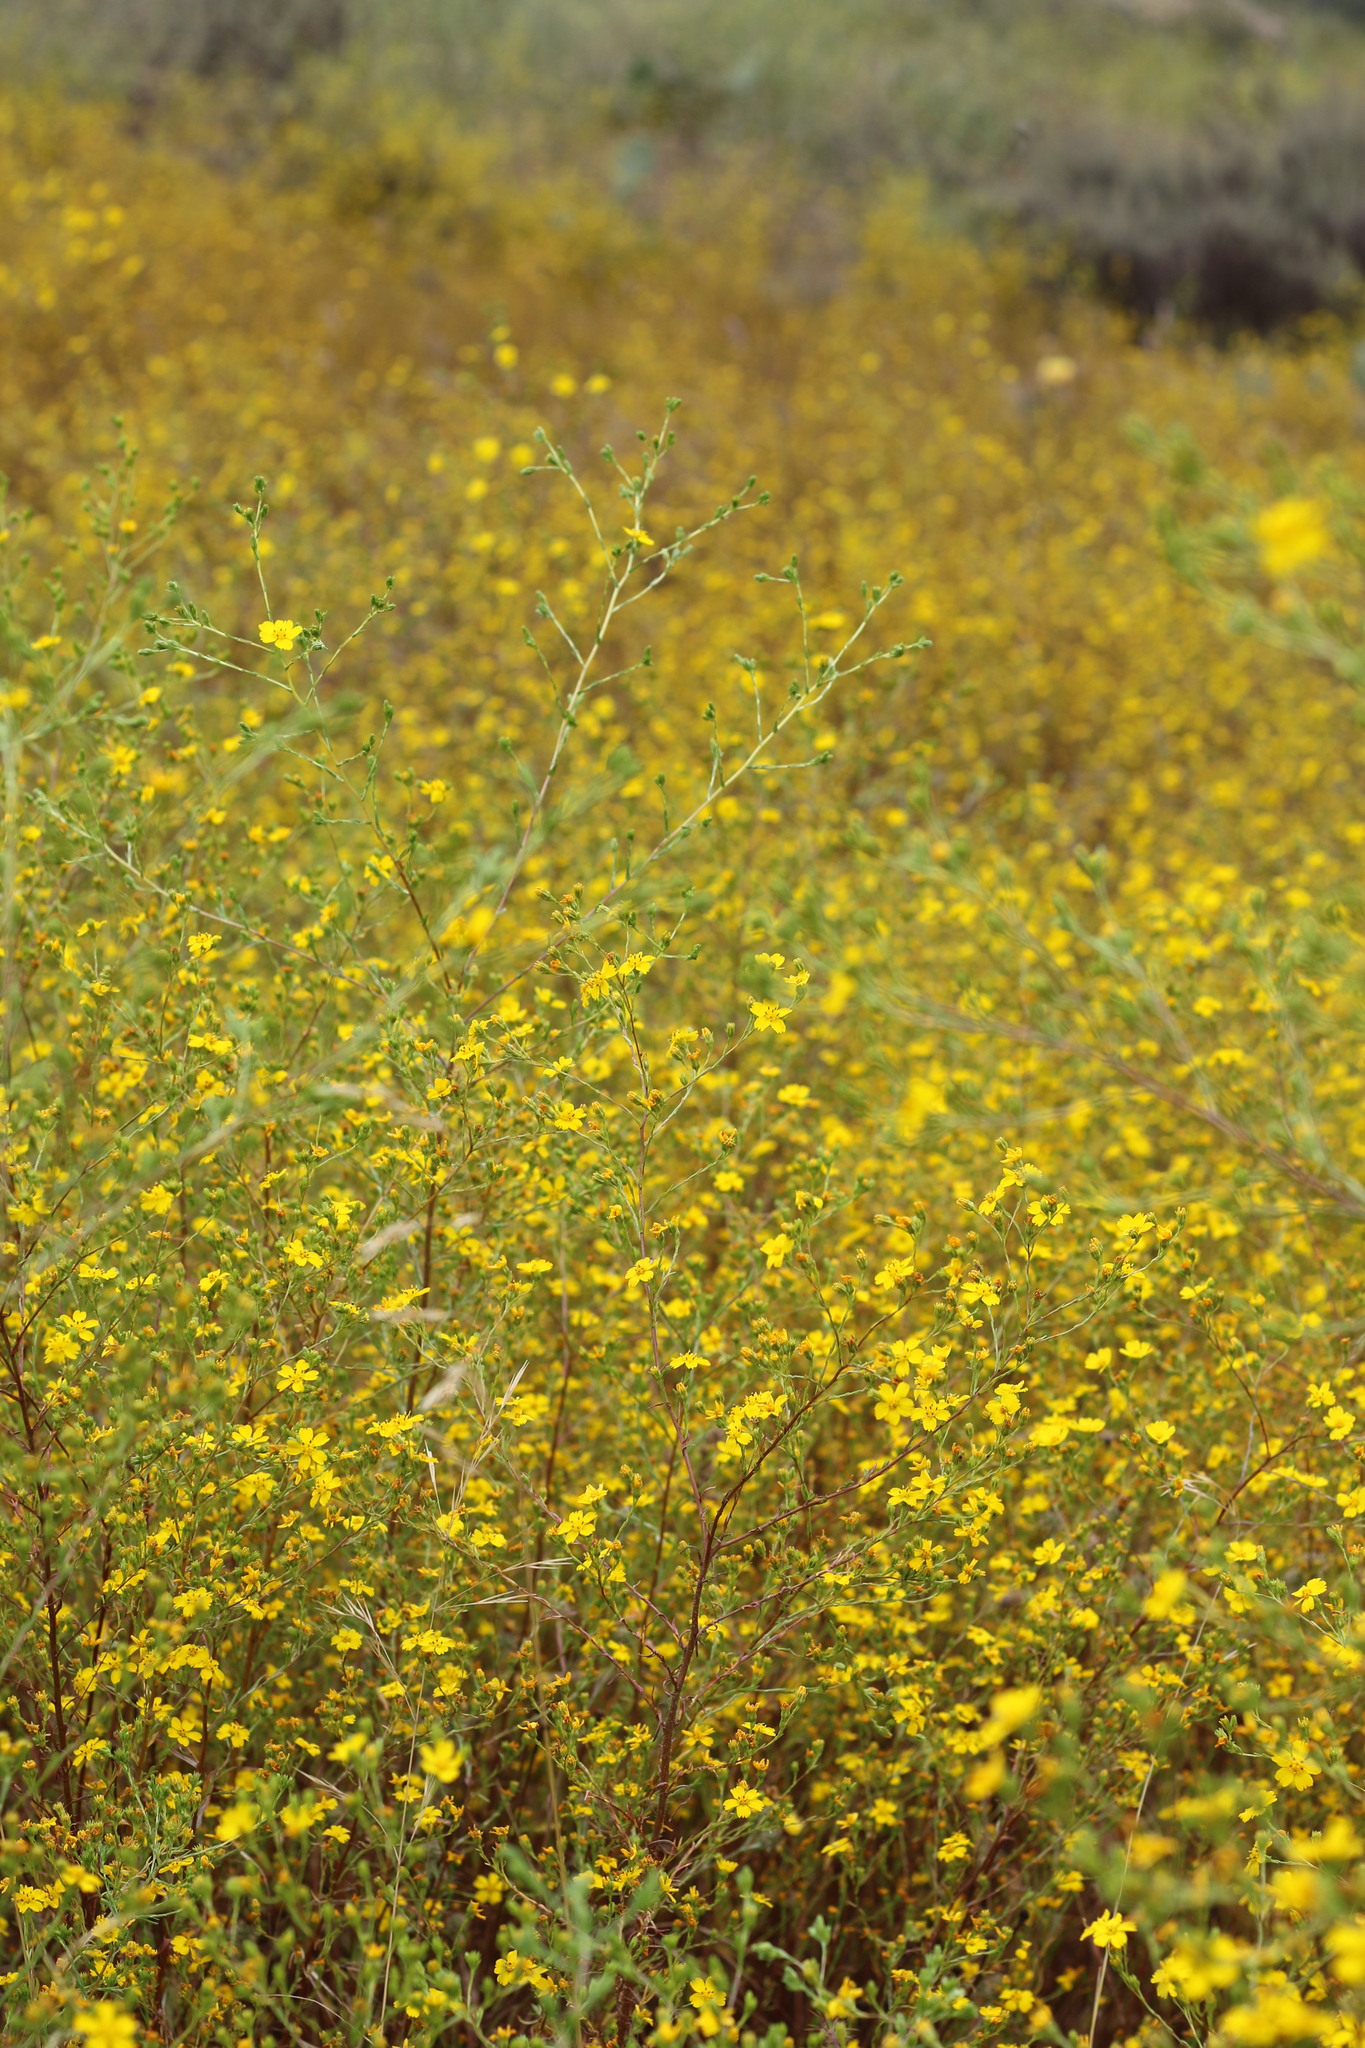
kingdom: Plantae
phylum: Tracheophyta
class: Magnoliopsida
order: Asterales
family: Asteraceae
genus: Deinandra
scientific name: Deinandra fasciculata
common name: Clustered tarweed
